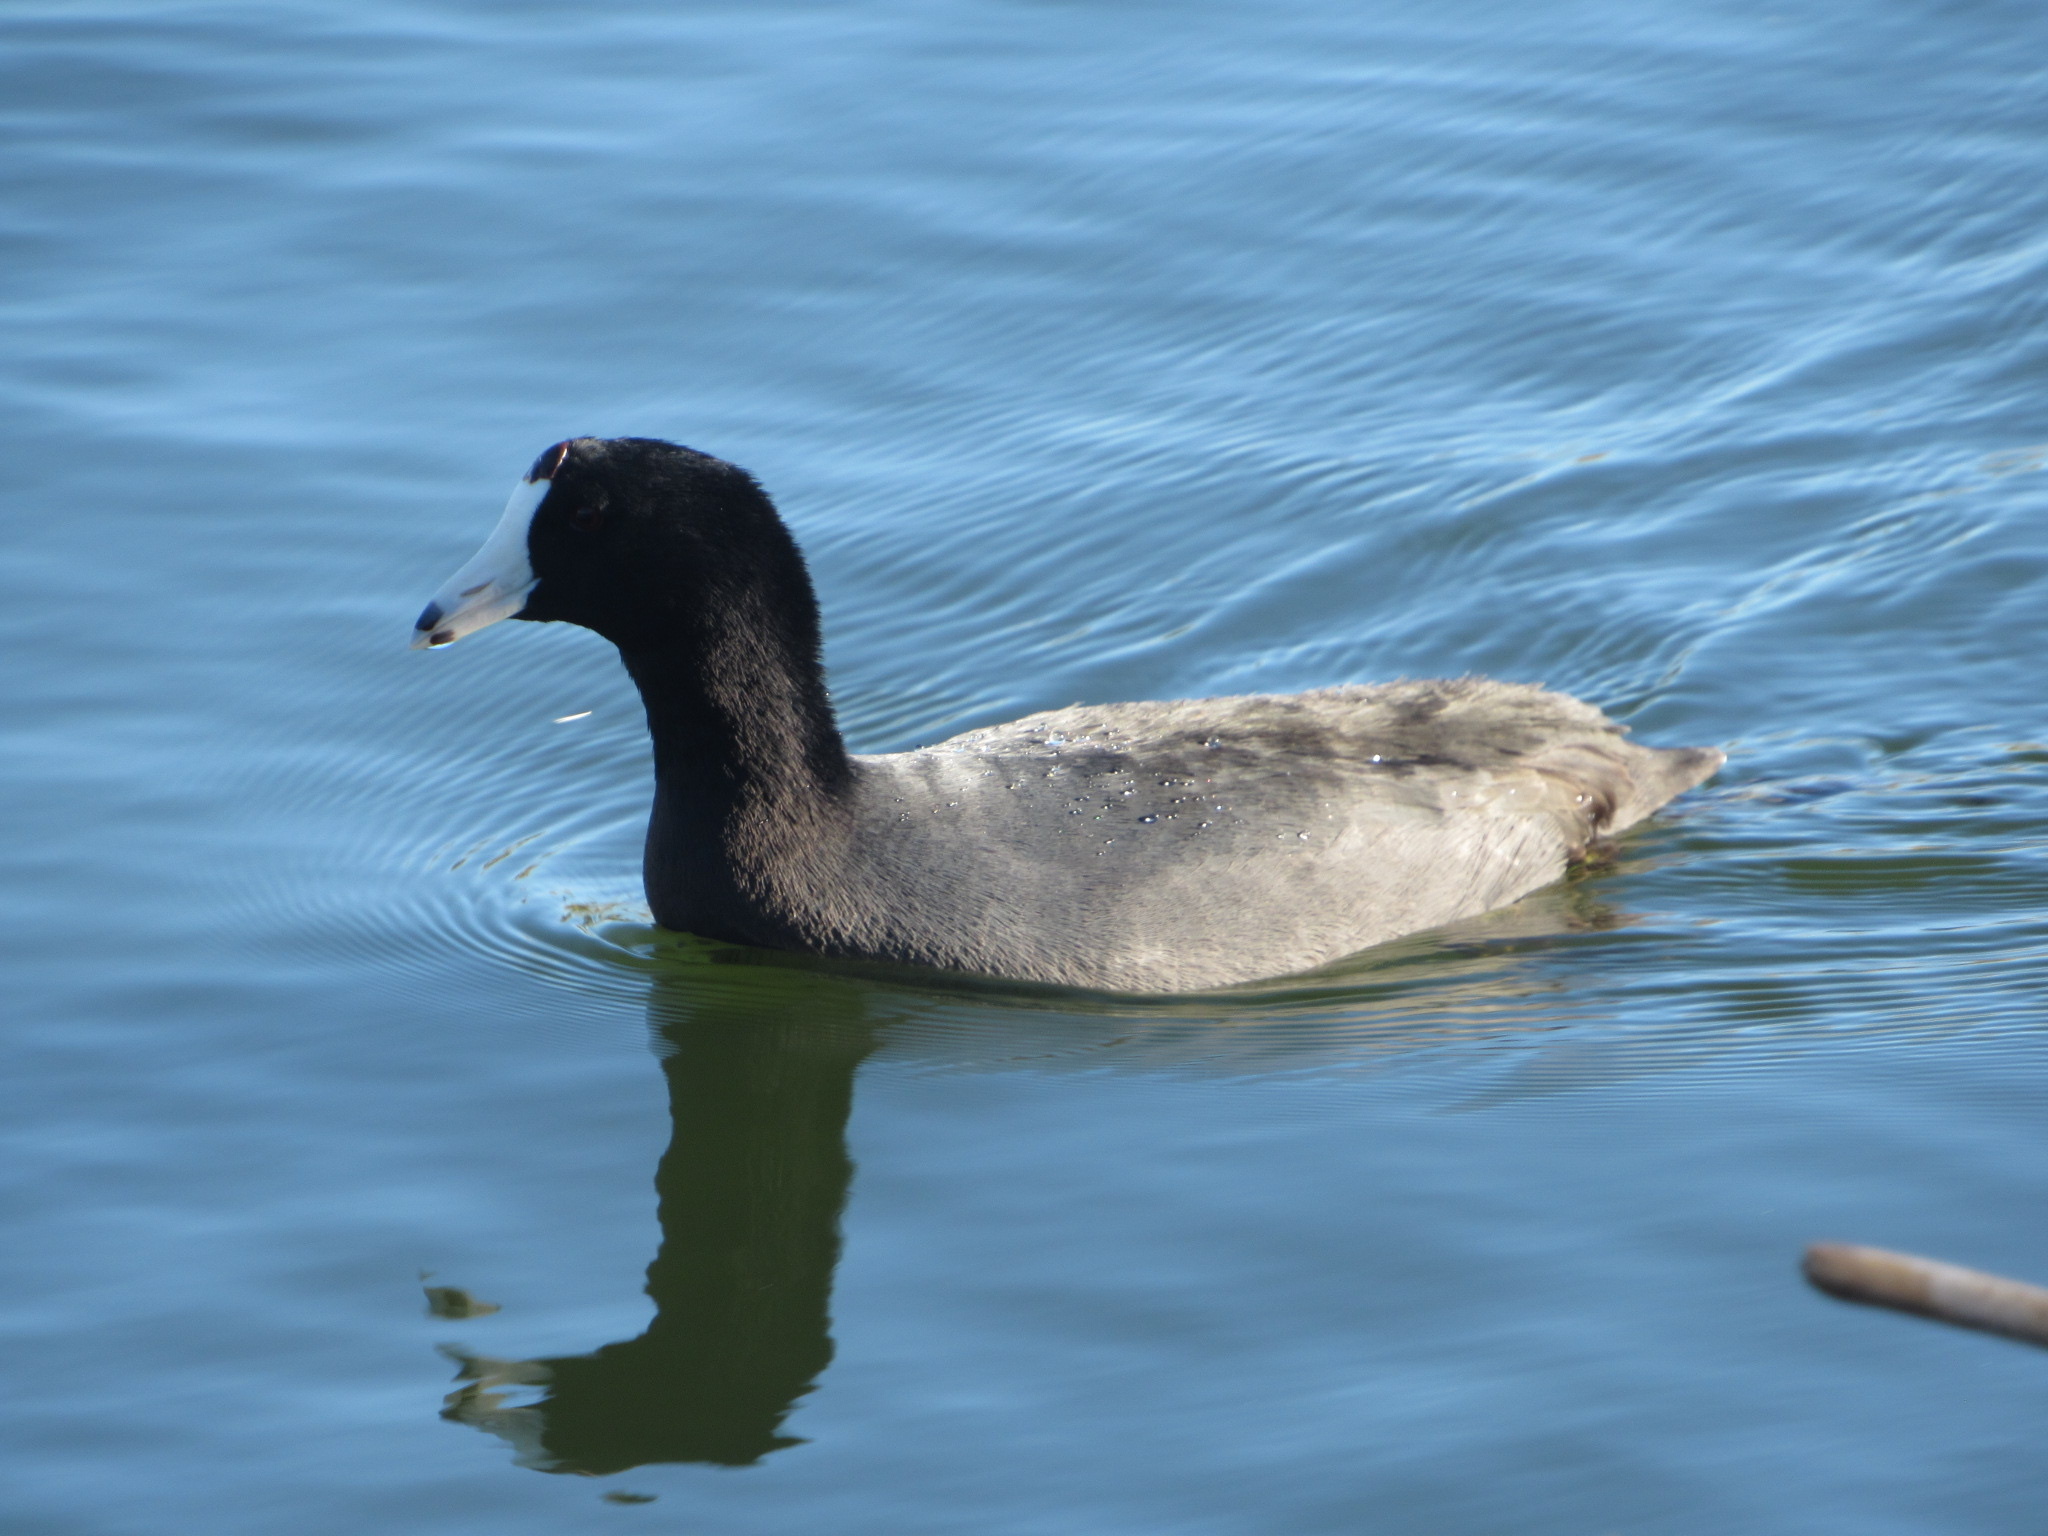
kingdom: Animalia
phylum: Chordata
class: Aves
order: Gruiformes
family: Rallidae
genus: Fulica
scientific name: Fulica americana
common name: American coot
